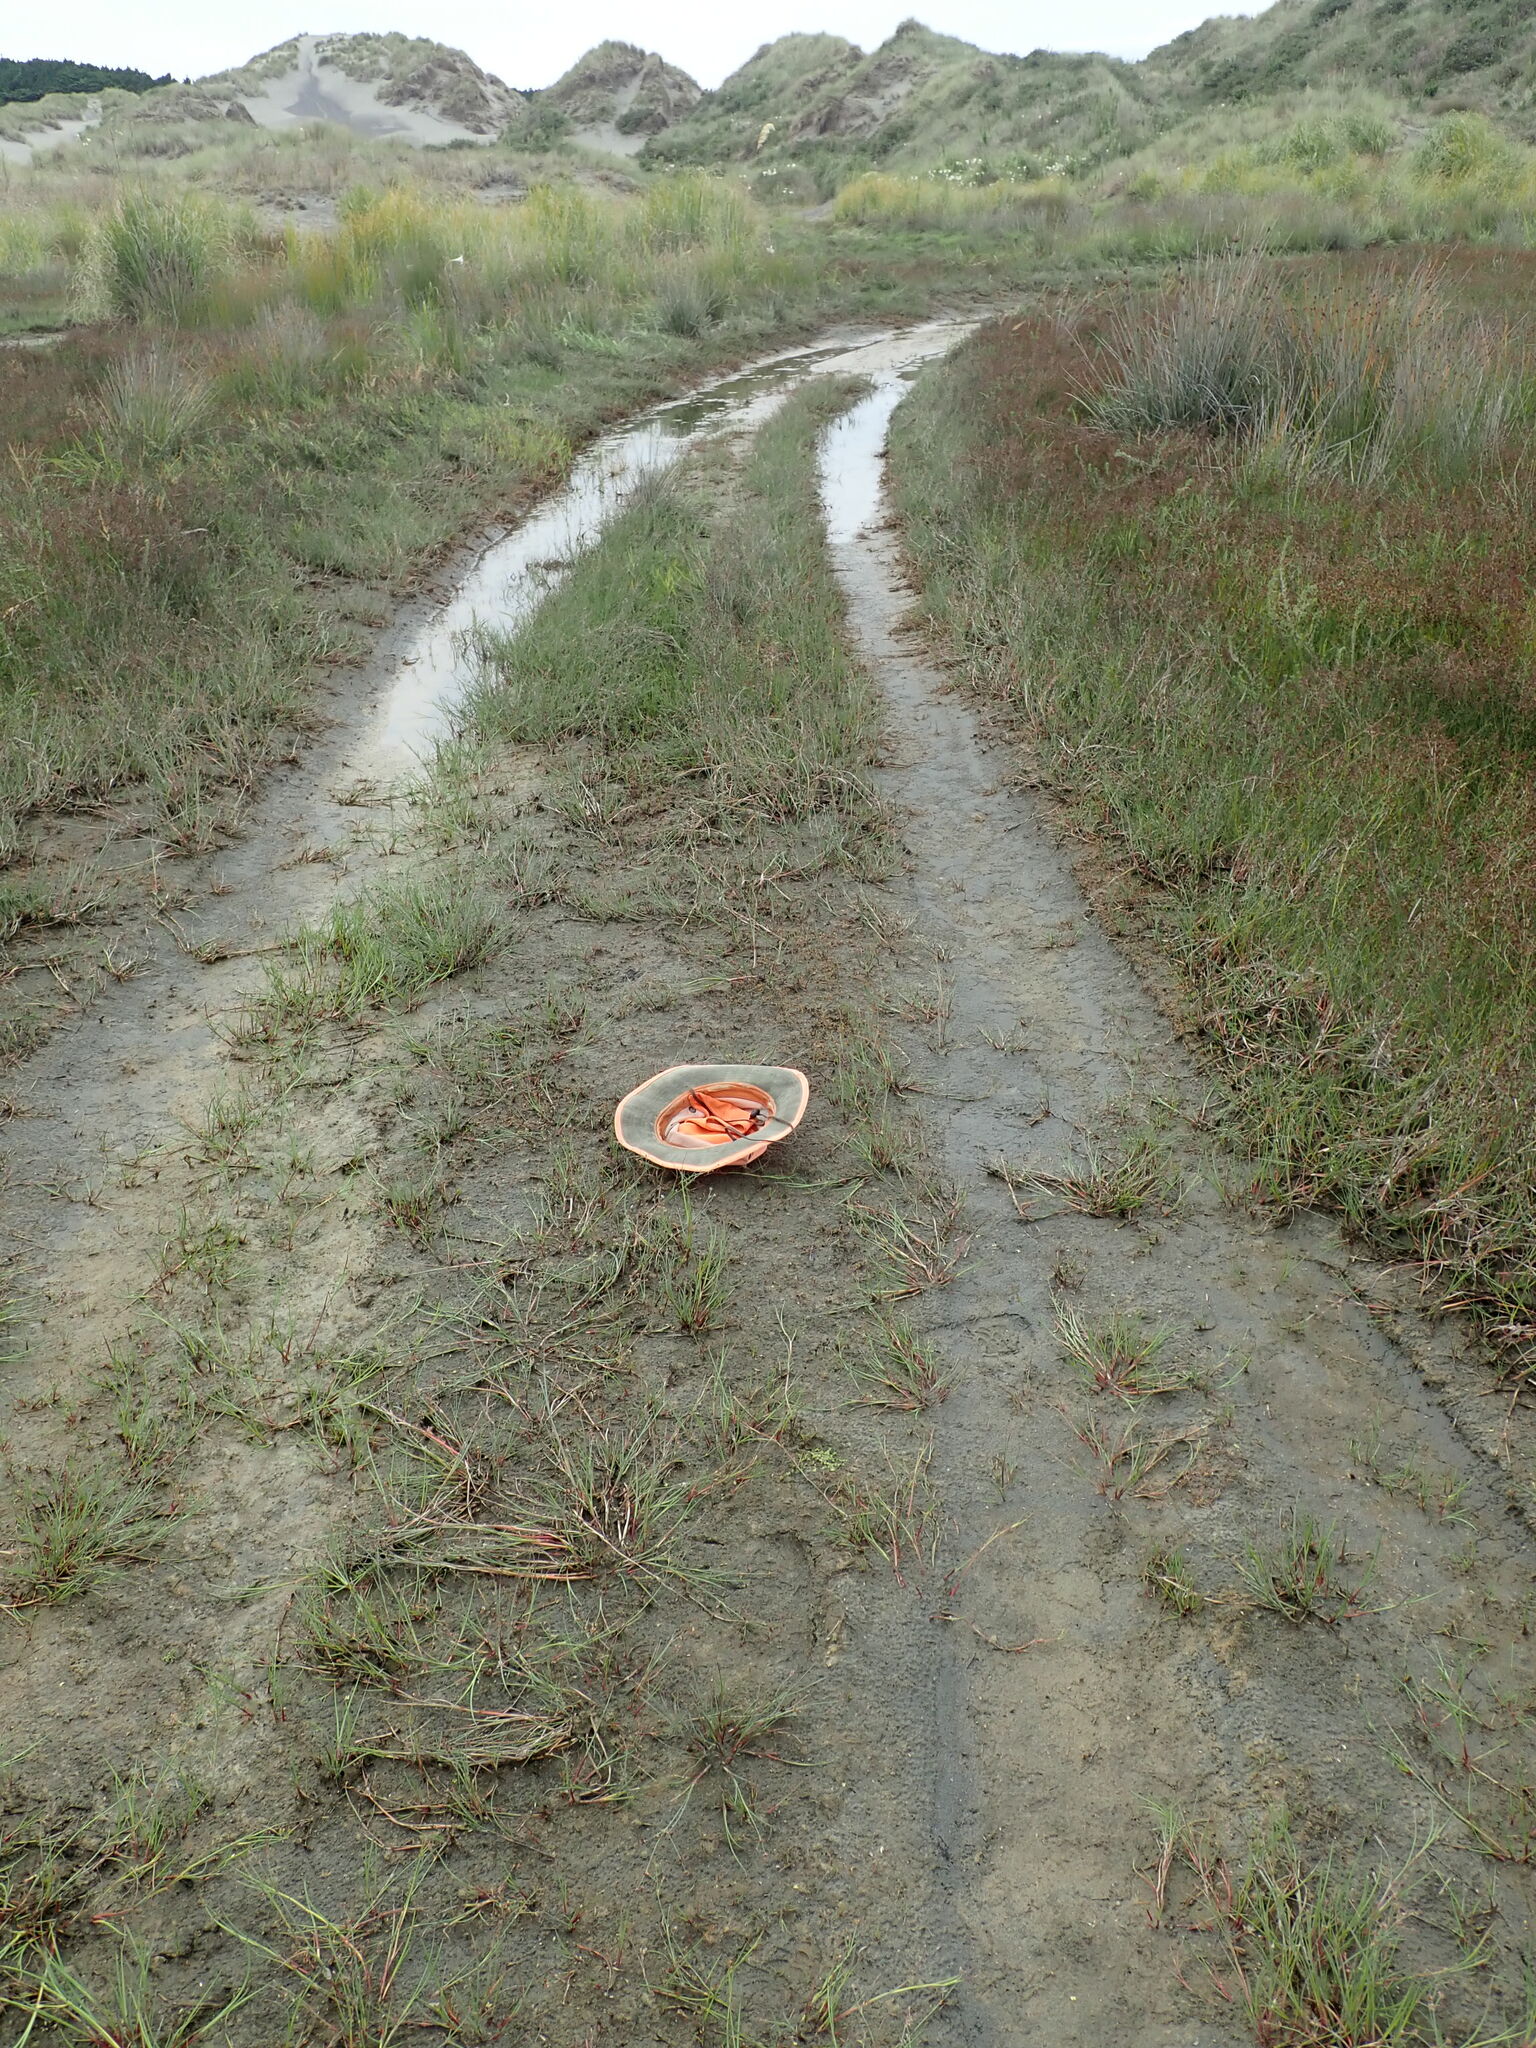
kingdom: Plantae
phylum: Tracheophyta
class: Magnoliopsida
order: Lamiales
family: Scrophulariaceae
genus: Limosella
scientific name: Limosella australis
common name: Welsh mudwort
